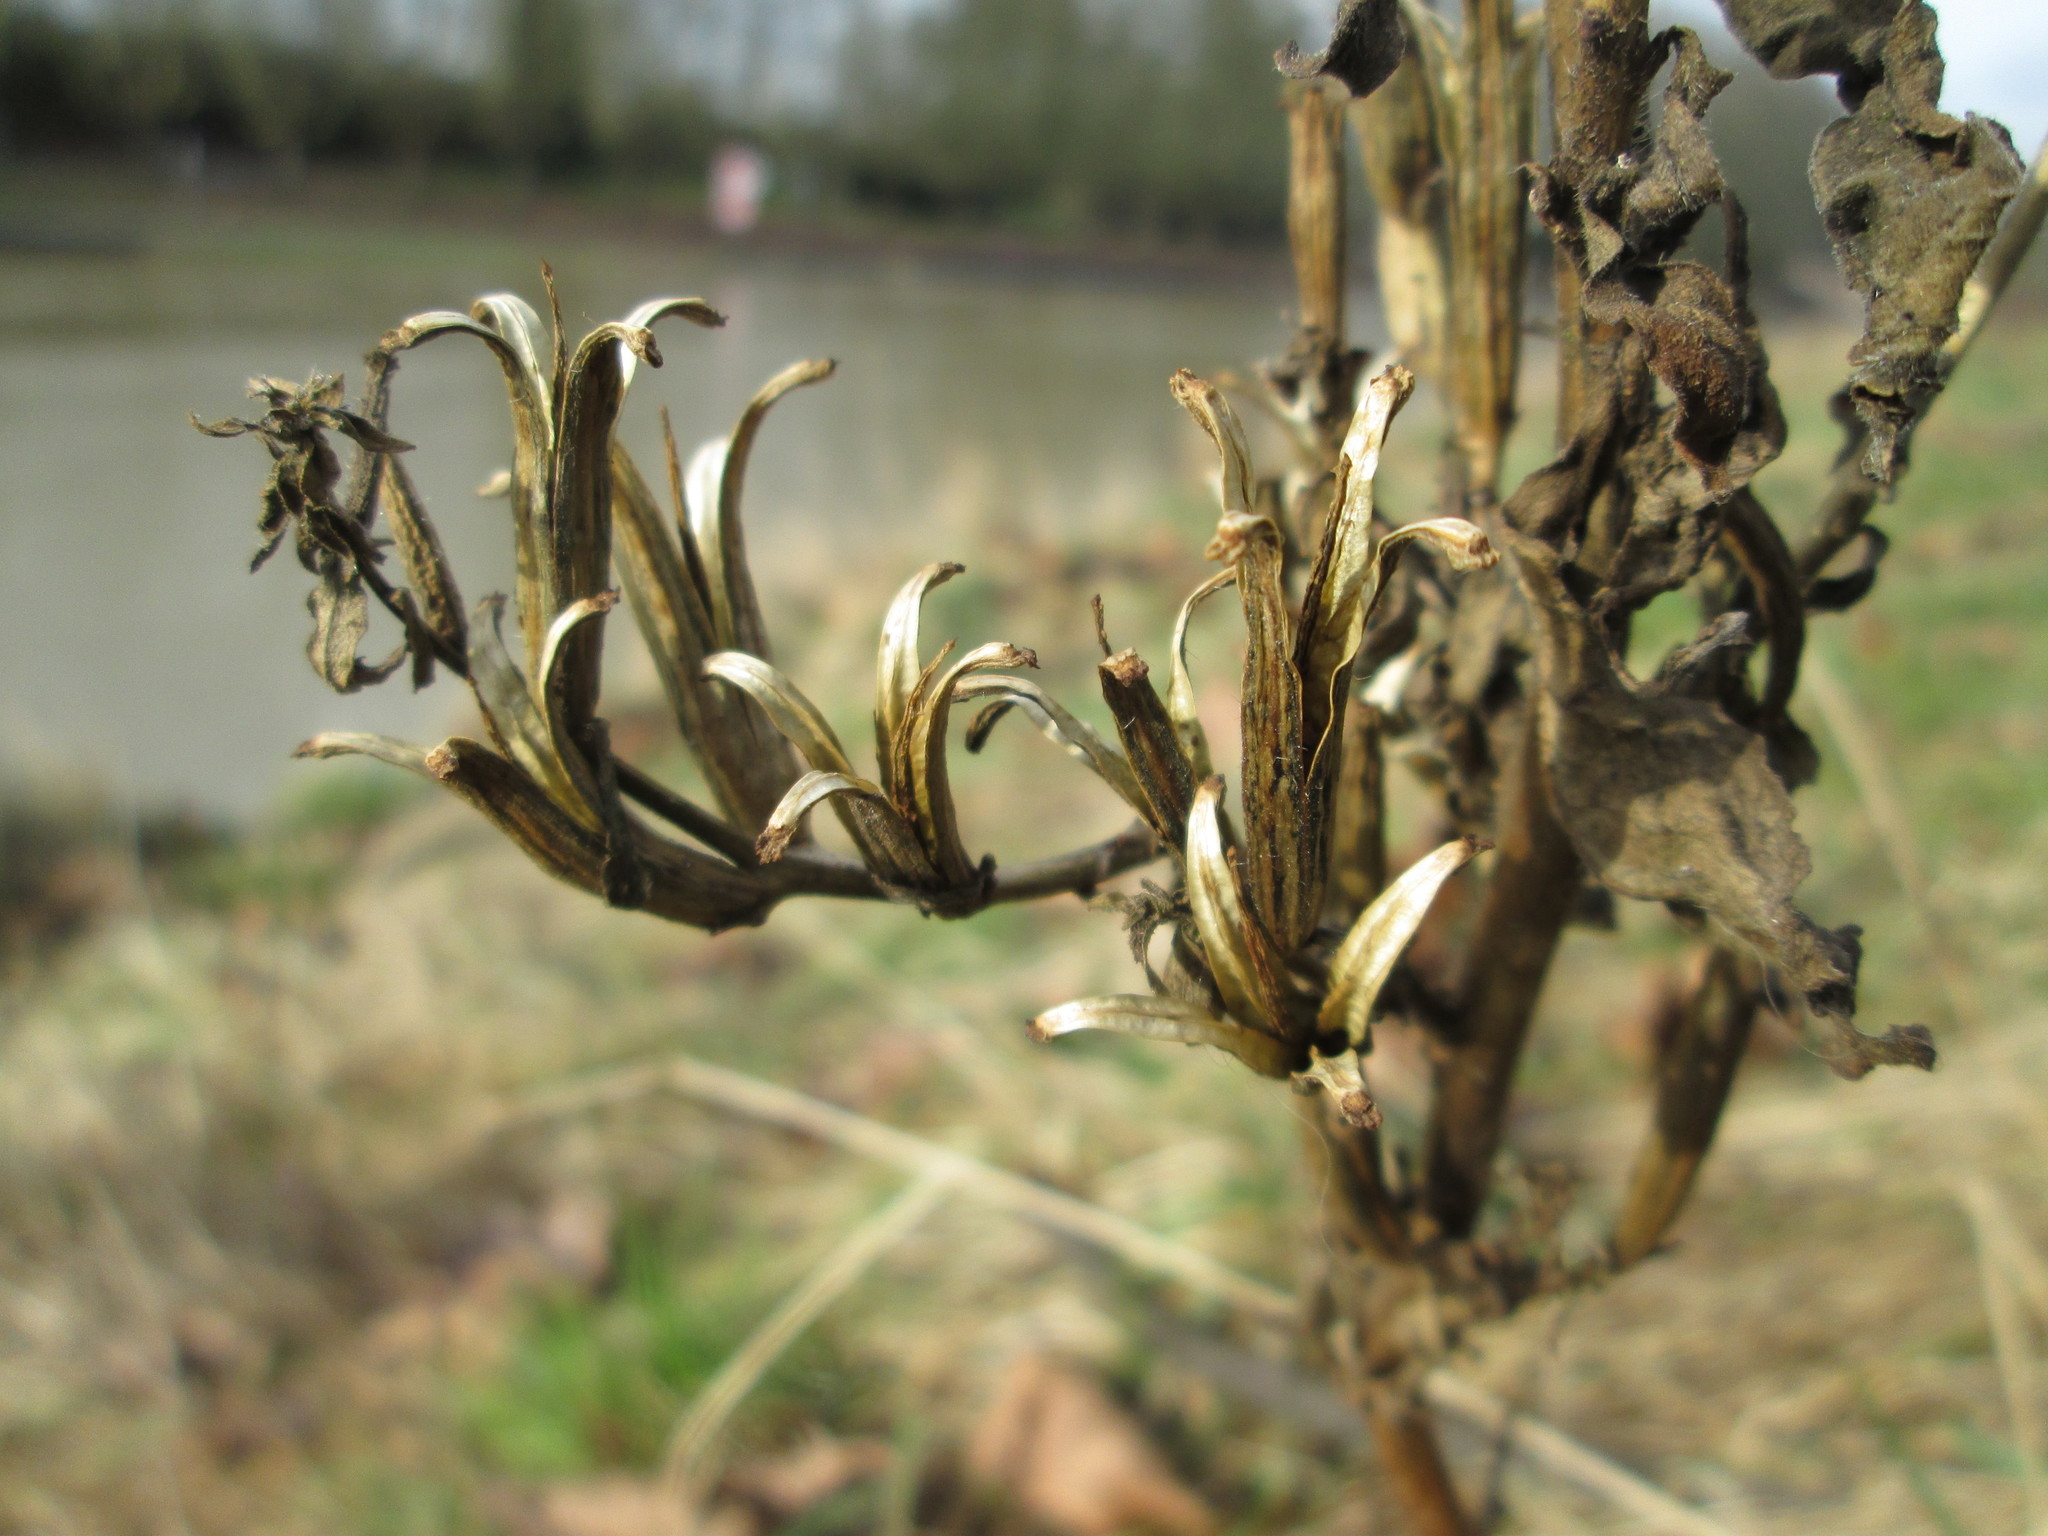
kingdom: Plantae
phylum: Tracheophyta
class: Magnoliopsida
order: Myrtales
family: Onagraceae
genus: Oenothera
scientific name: Oenothera biennis
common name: Common evening-primrose
